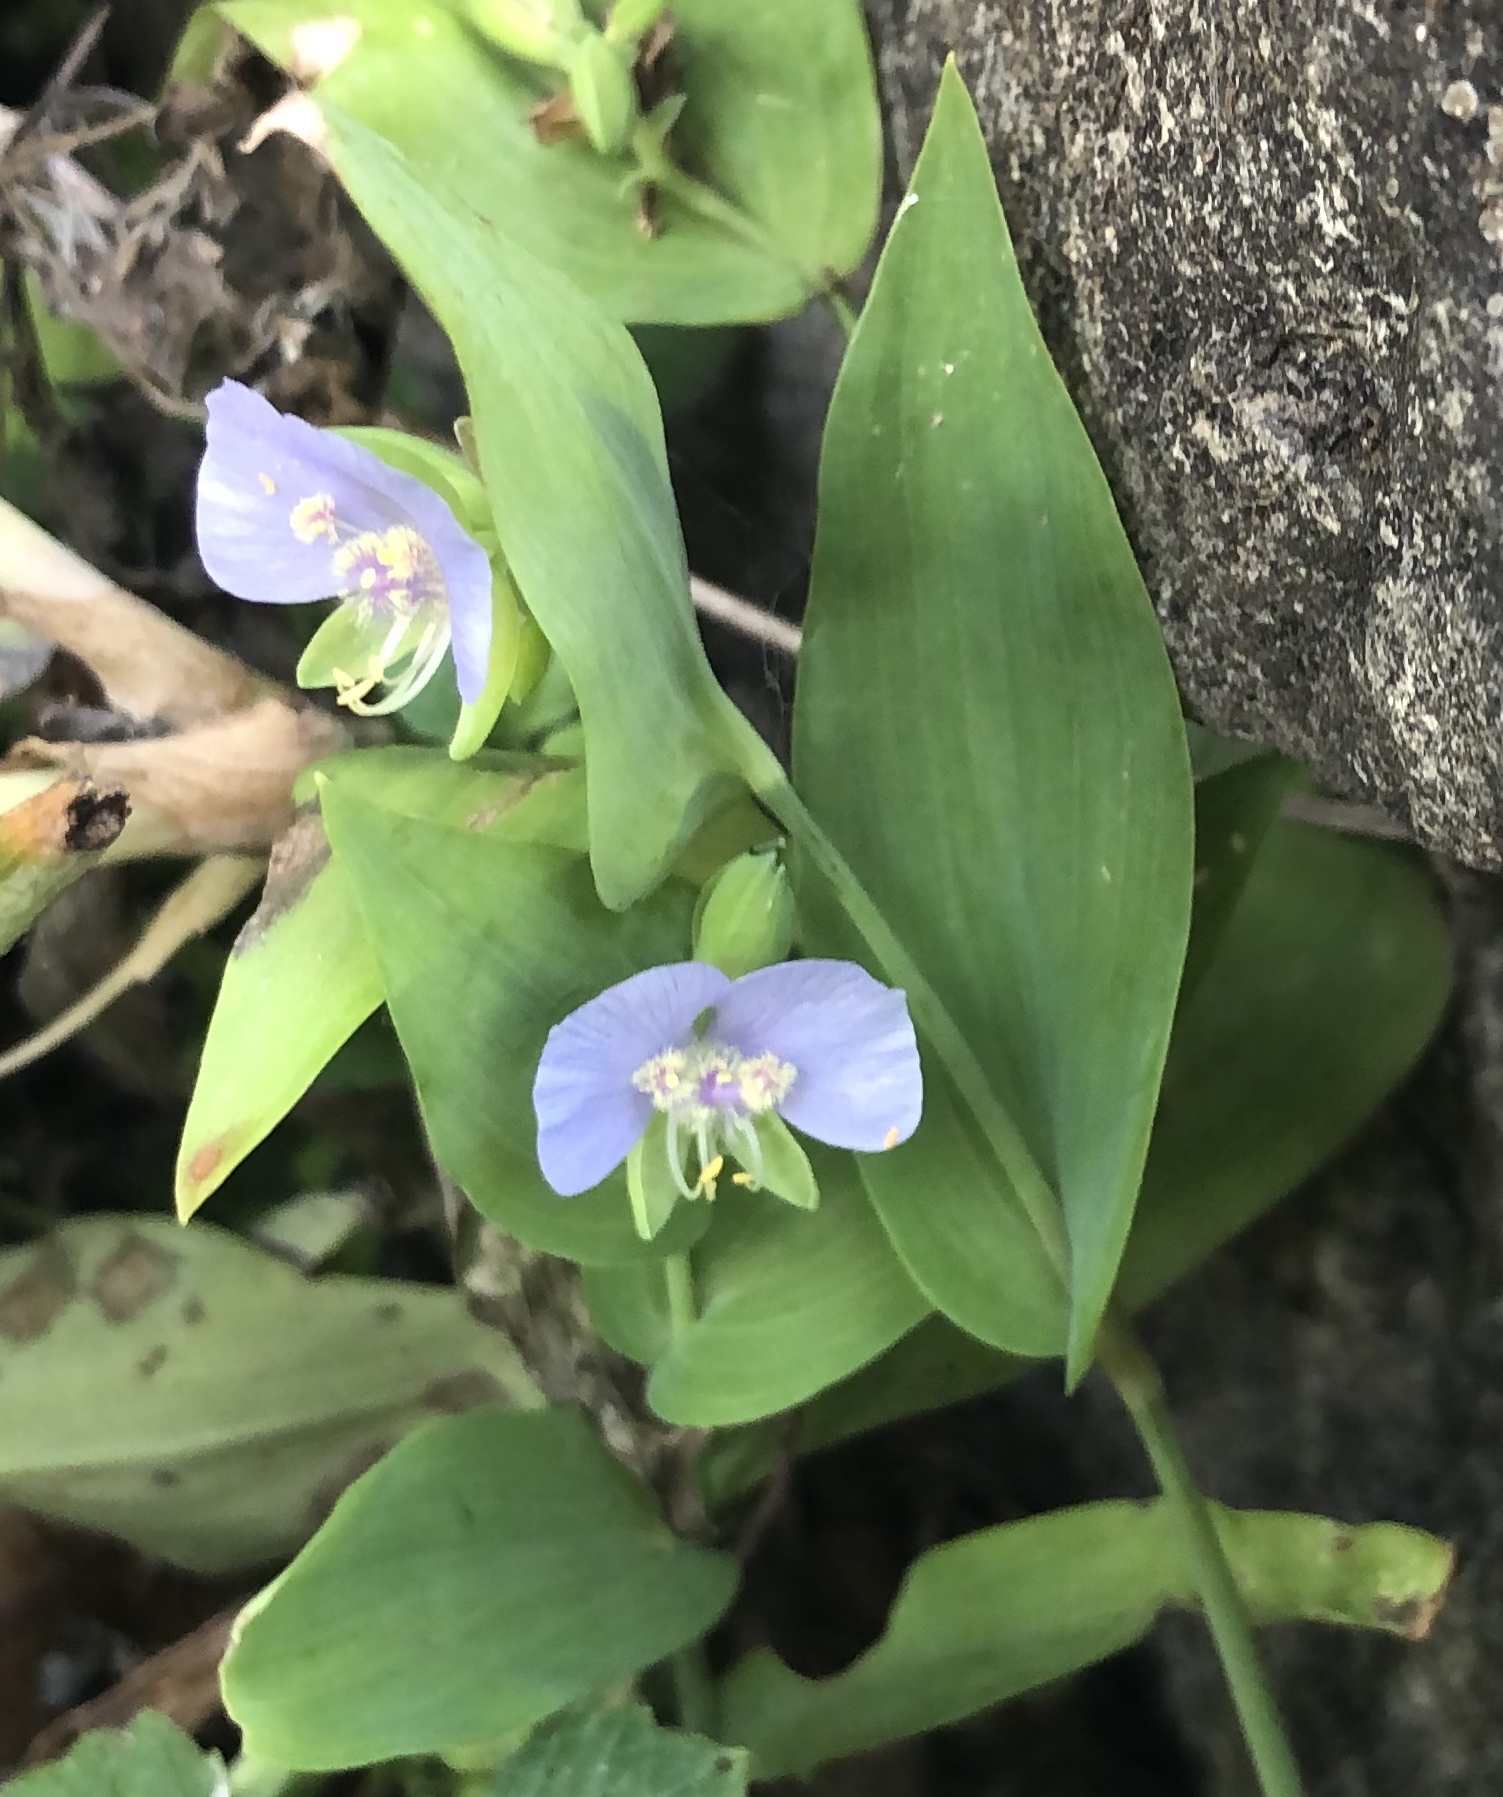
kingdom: Plantae
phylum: Tracheophyta
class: Liliopsida
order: Commelinales
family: Commelinaceae
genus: Tinantia
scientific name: Tinantia anomala
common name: False dayflower
